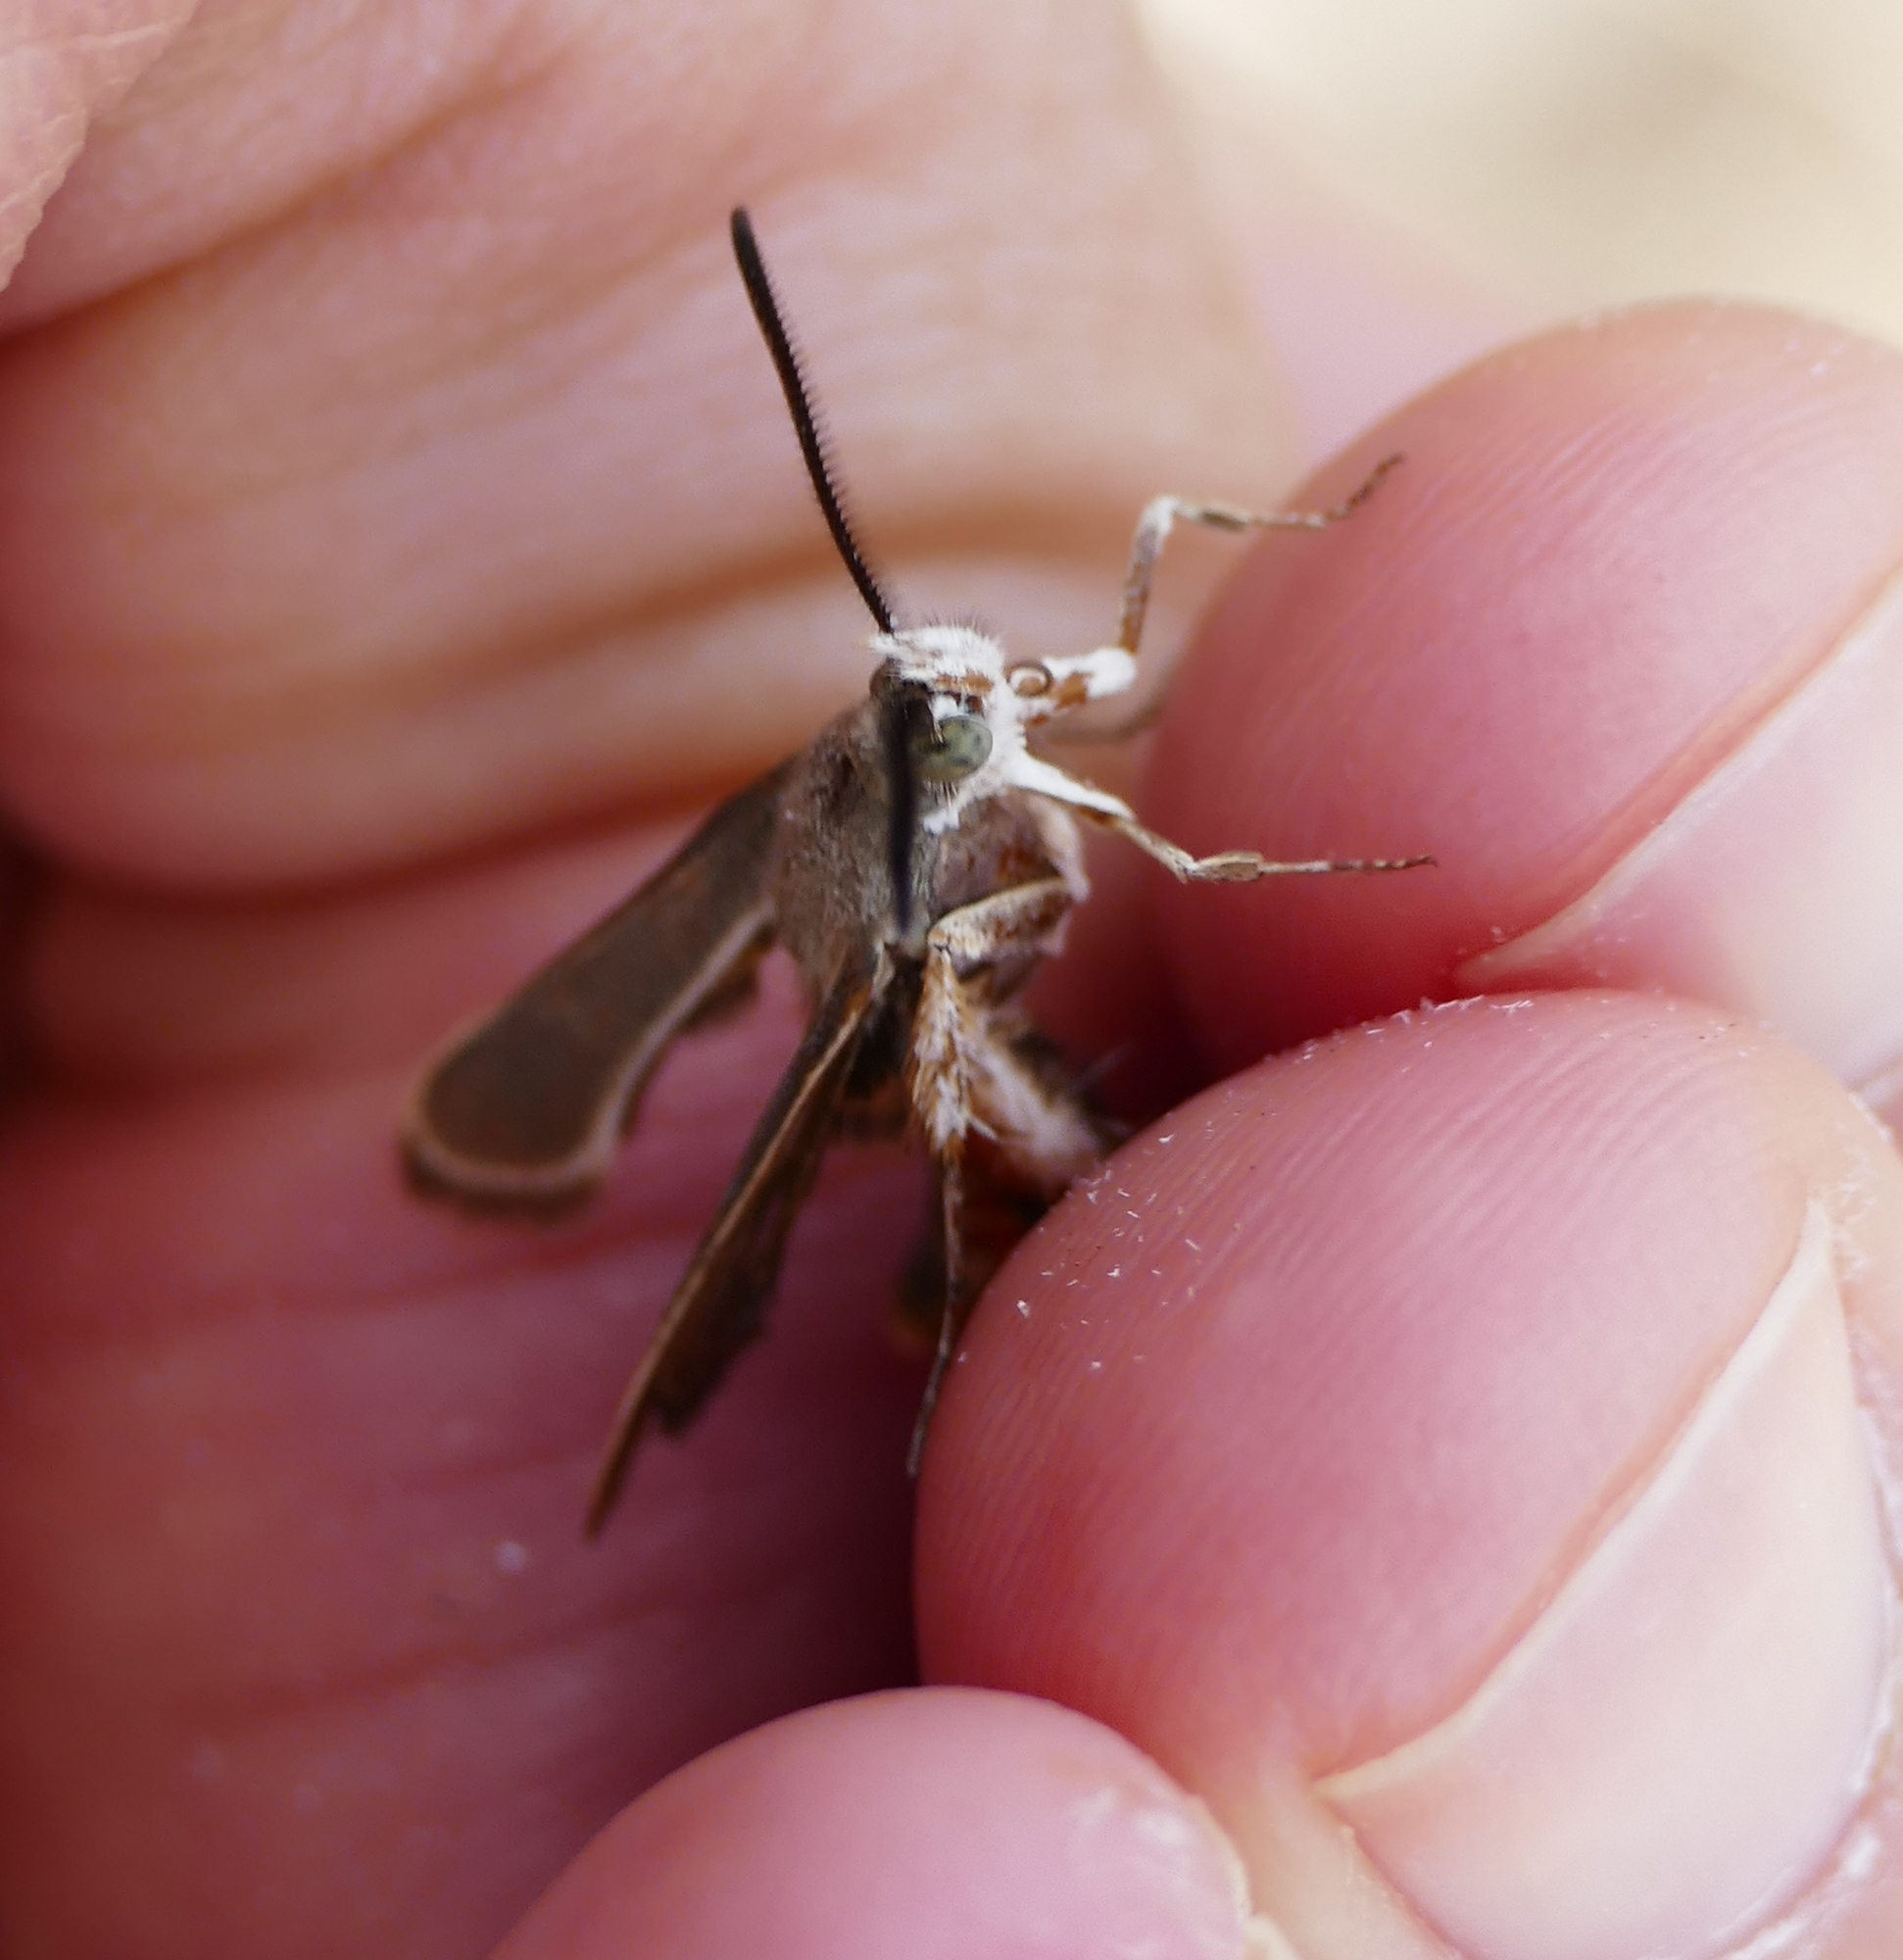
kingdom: Animalia
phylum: Arthropoda
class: Insecta
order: Lepidoptera
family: Sesiidae
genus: Eichlinia
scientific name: Eichlinia snowii
